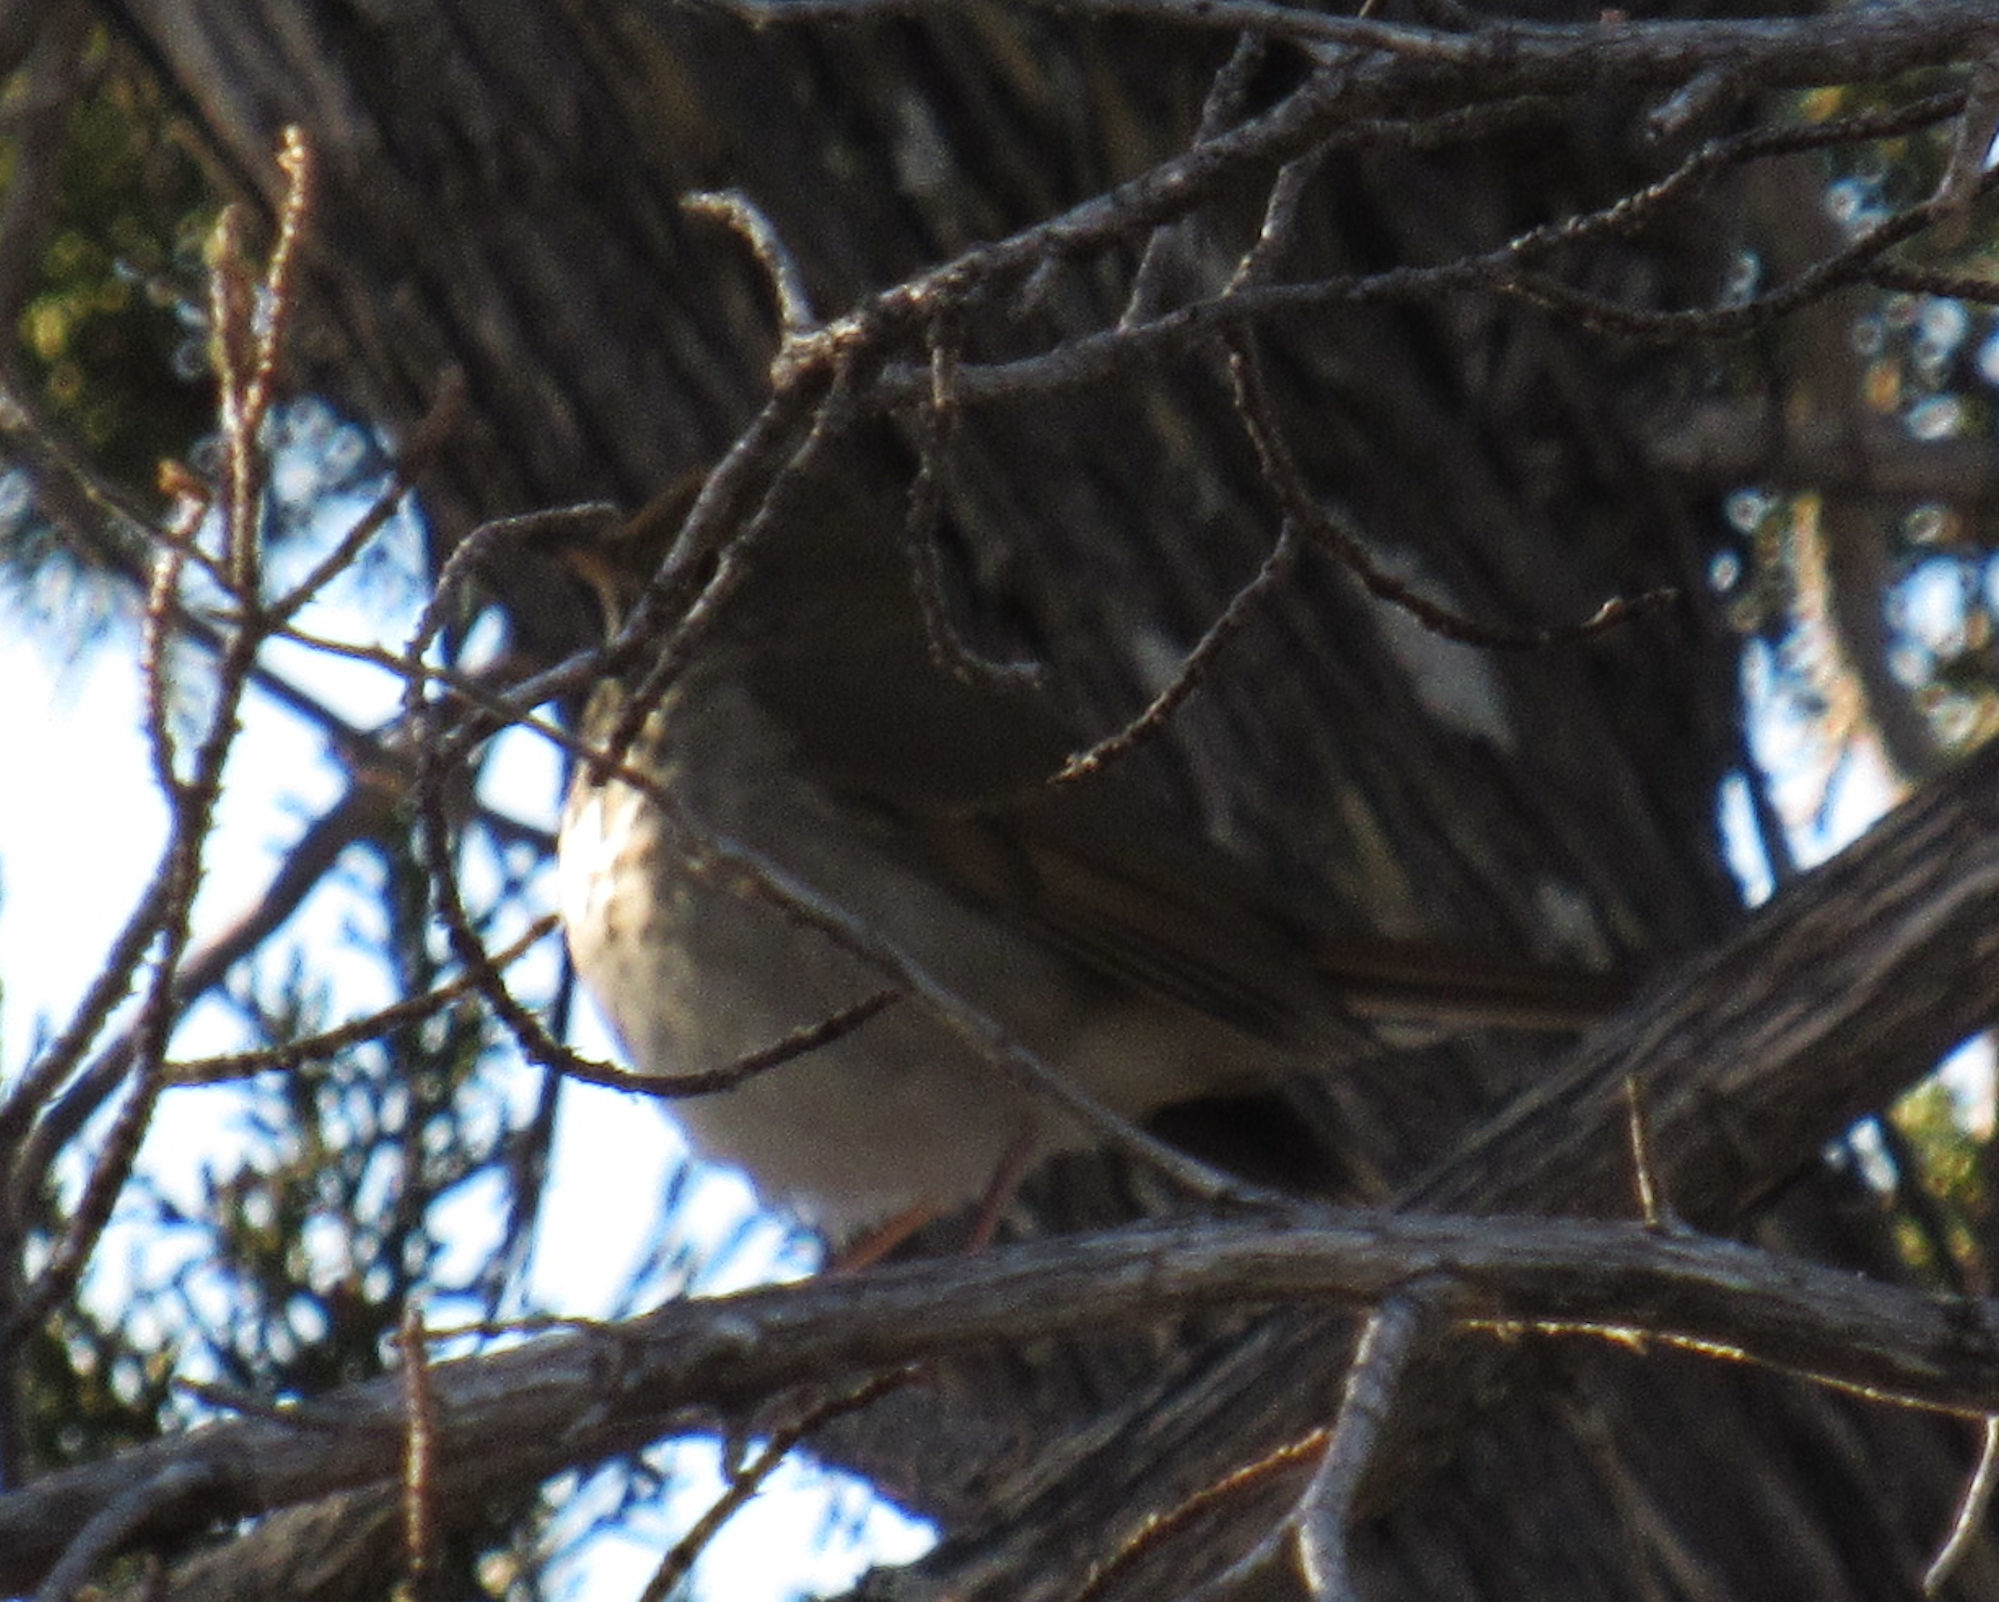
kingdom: Animalia
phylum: Chordata
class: Aves
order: Passeriformes
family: Turdidae
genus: Catharus
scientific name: Catharus guttatus
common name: Hermit thrush
